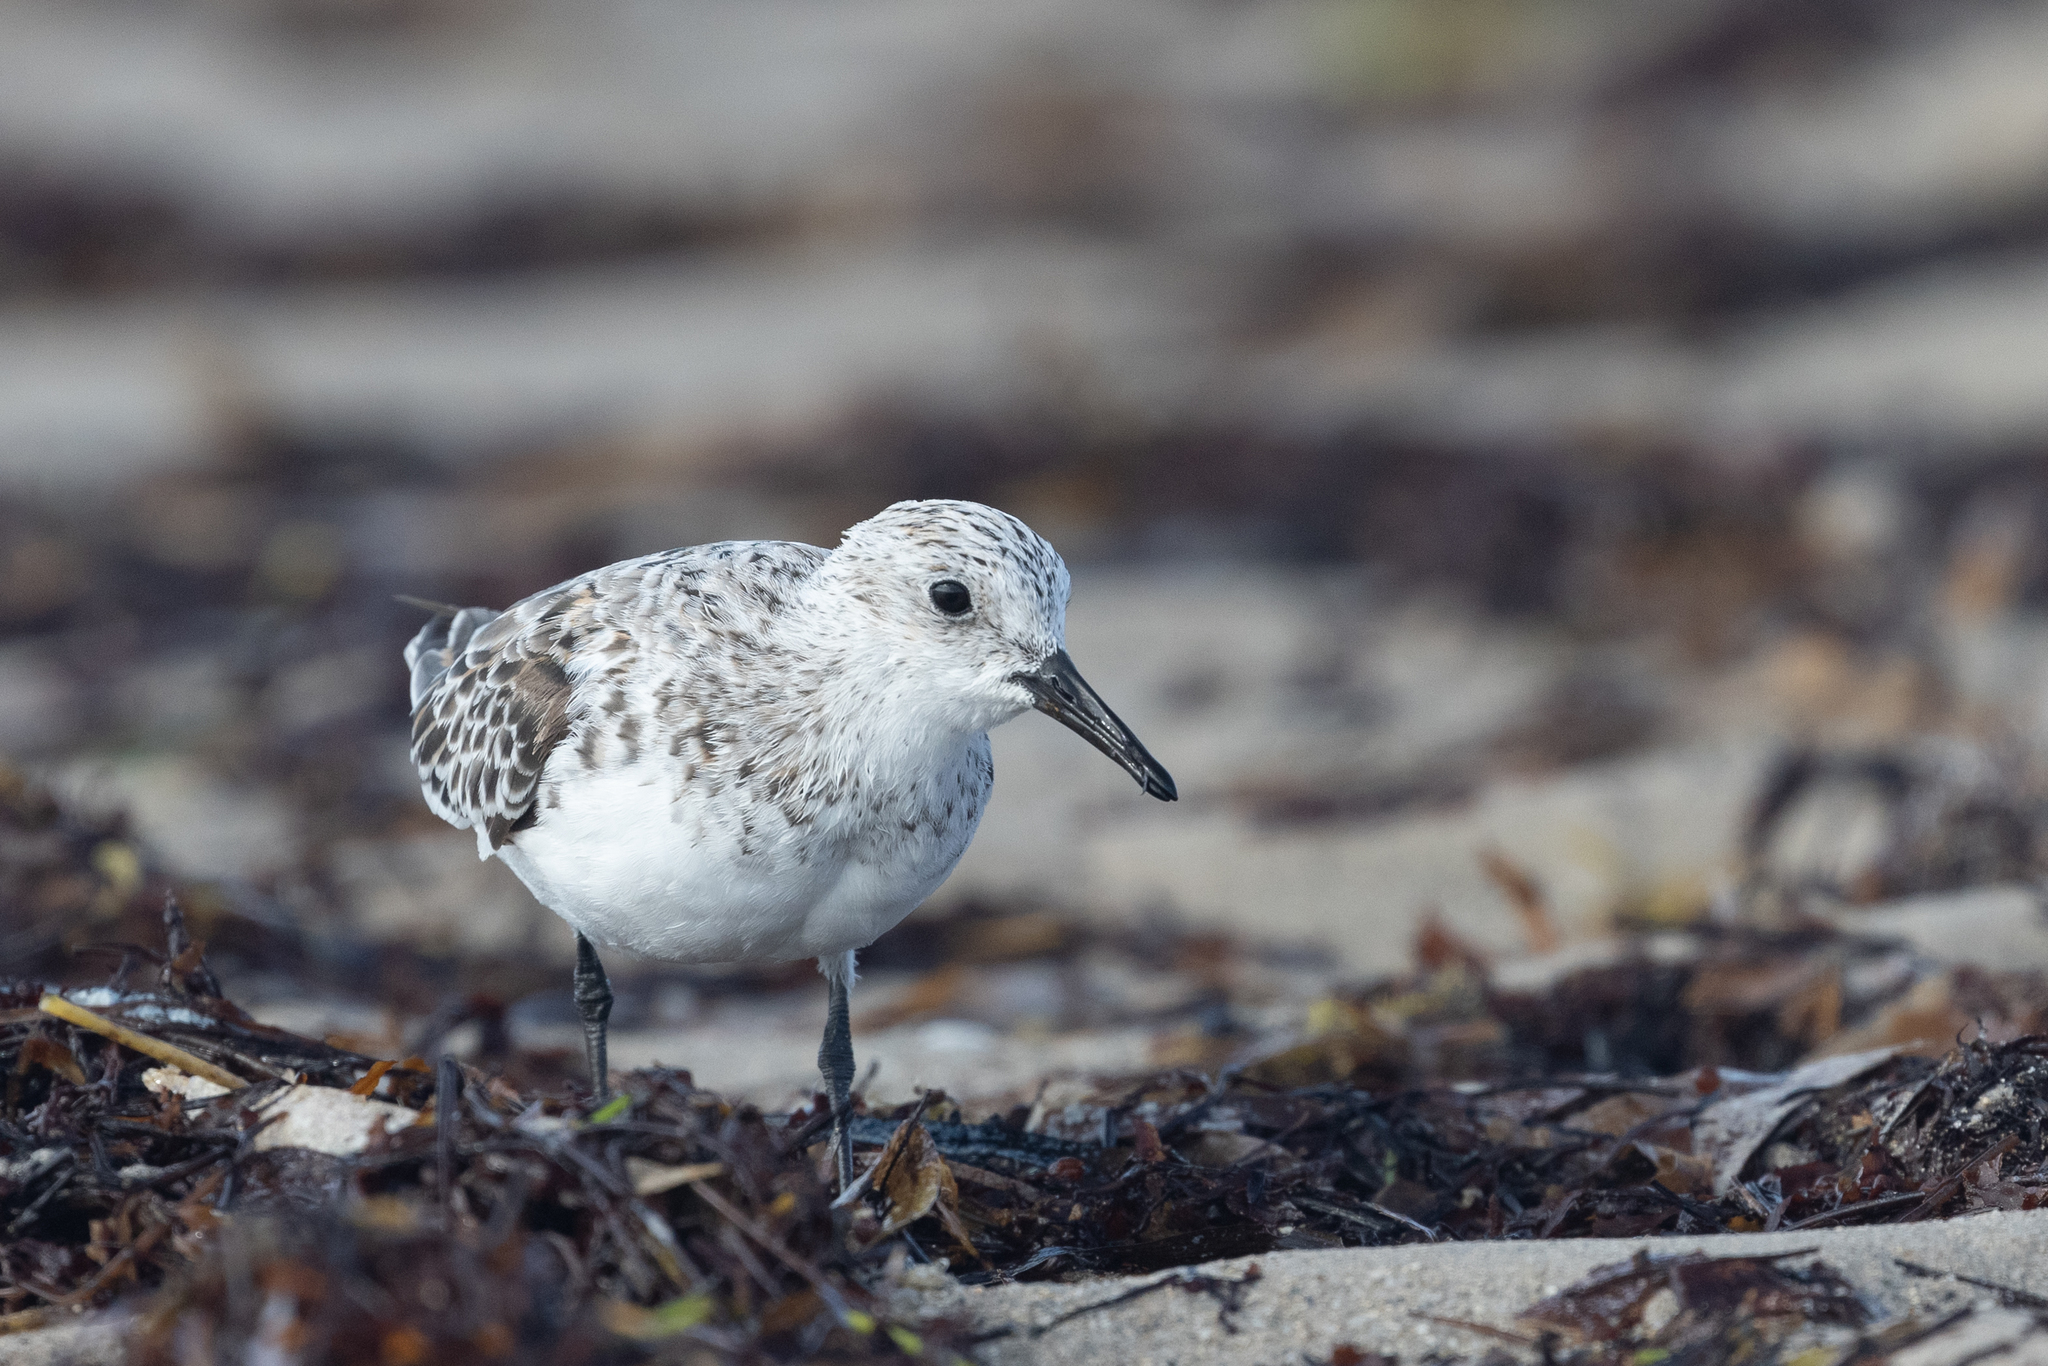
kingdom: Animalia
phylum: Chordata
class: Aves
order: Charadriiformes
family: Scolopacidae
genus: Calidris
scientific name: Calidris alba
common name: Sanderling
